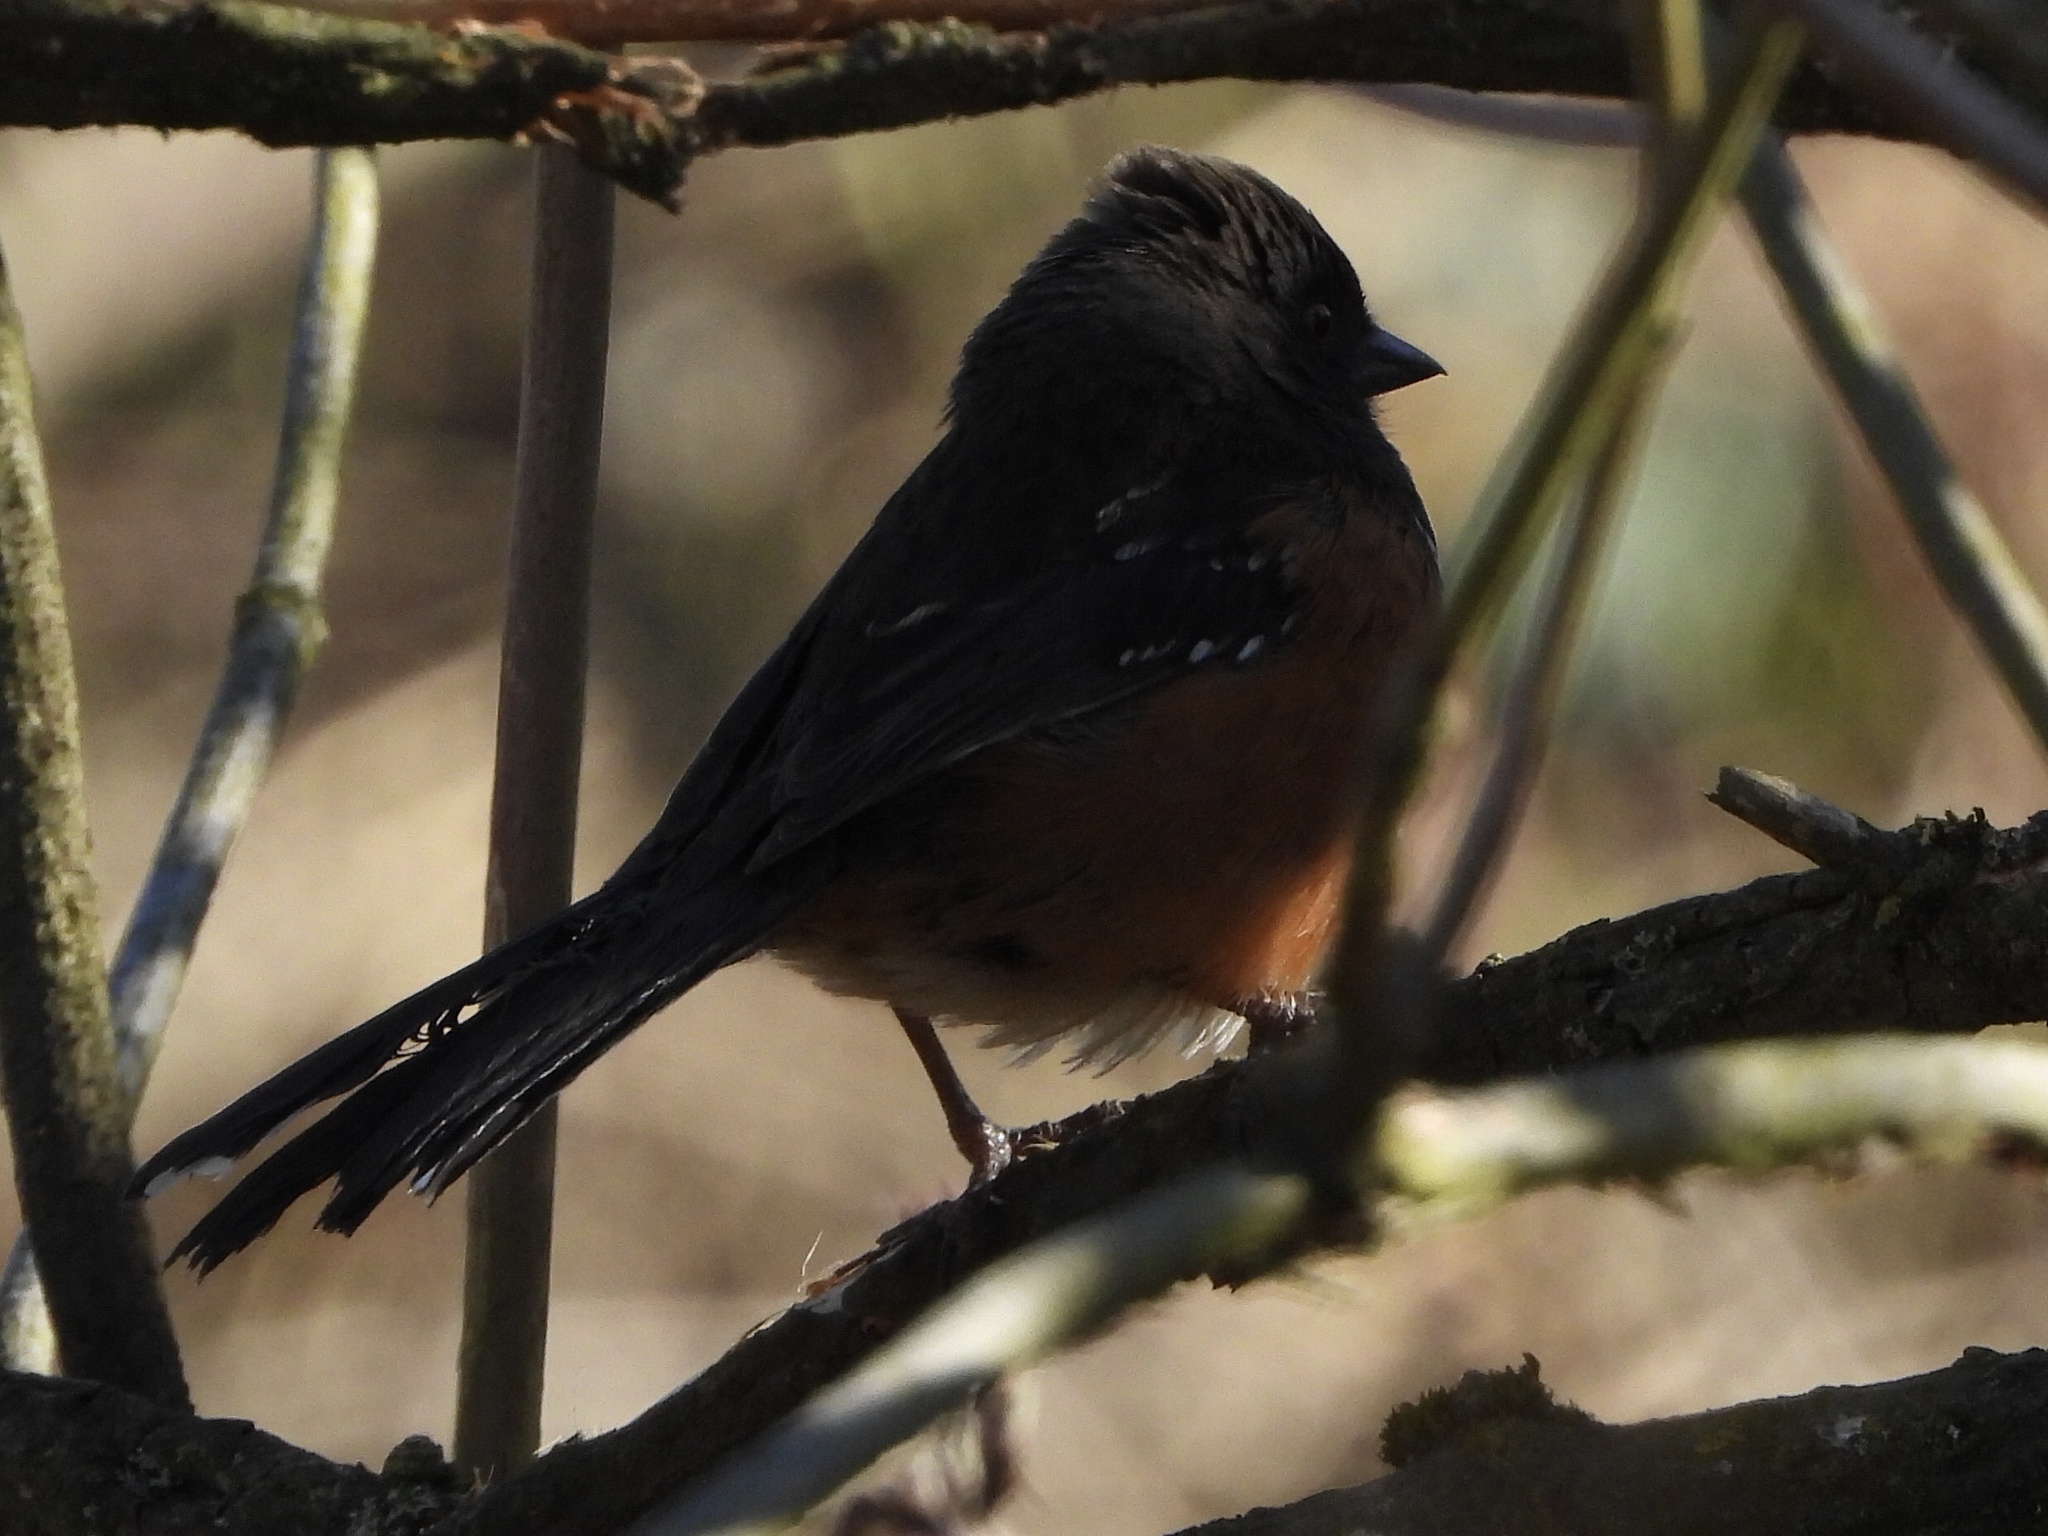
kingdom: Animalia
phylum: Chordata
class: Aves
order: Passeriformes
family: Passerellidae
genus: Pipilo
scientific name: Pipilo maculatus
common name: Spotted towhee
